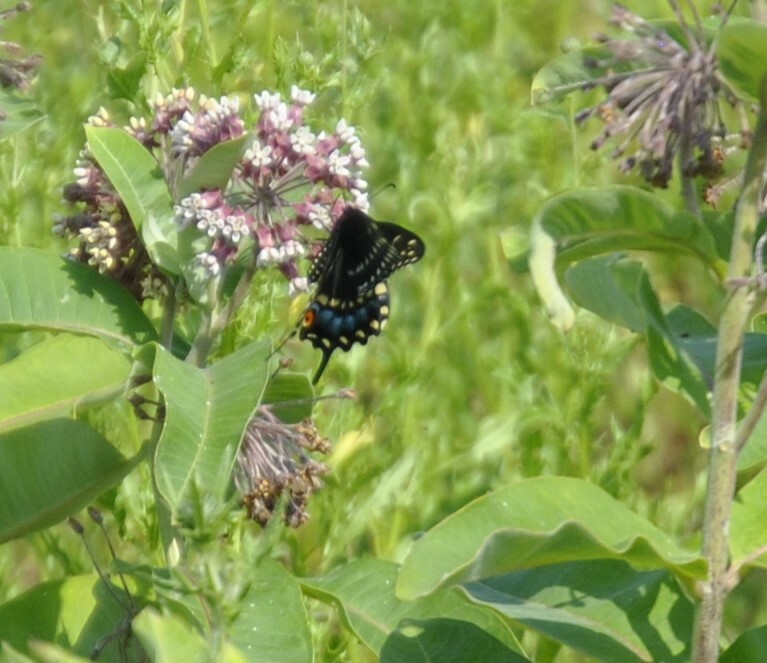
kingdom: Animalia
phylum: Arthropoda
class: Insecta
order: Lepidoptera
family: Papilionidae
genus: Papilio
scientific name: Papilio polyxenes
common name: Black swallowtail
